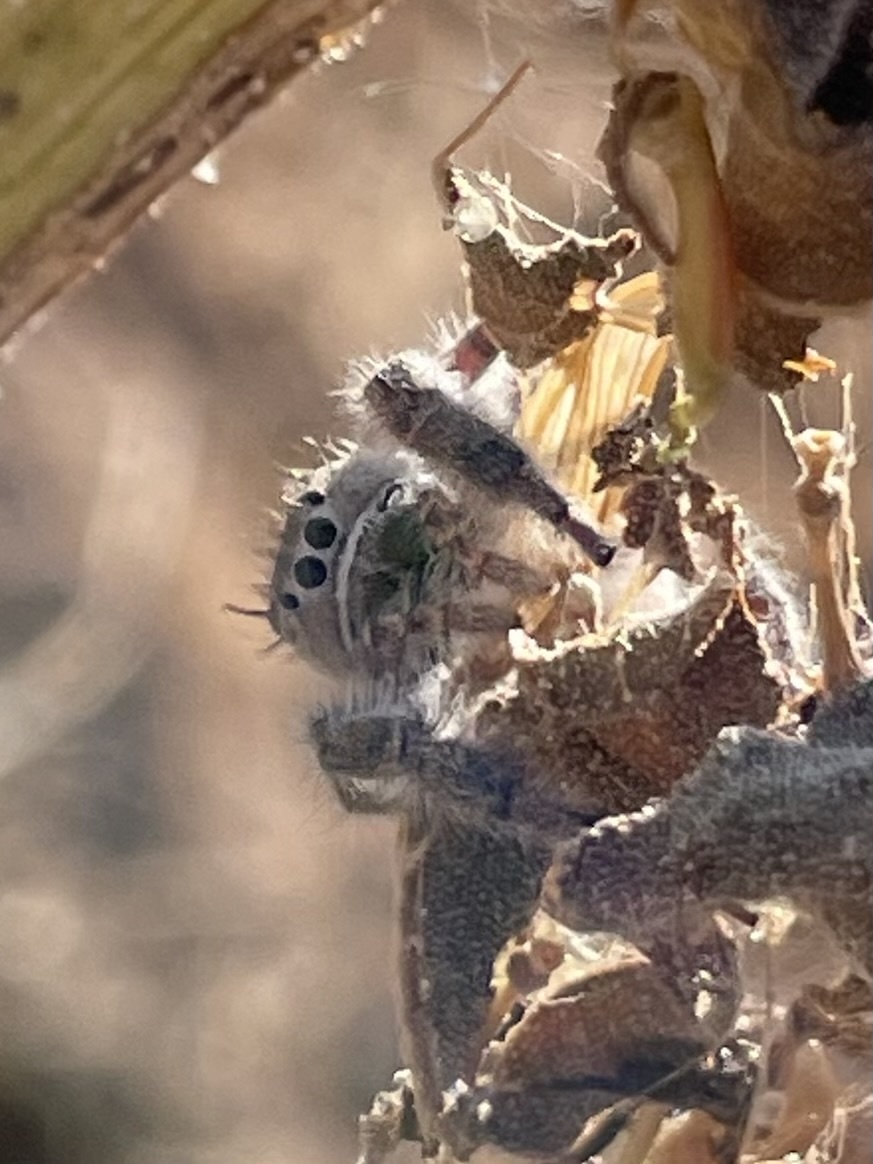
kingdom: Animalia
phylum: Arthropoda
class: Arachnida
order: Araneae
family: Salticidae
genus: Phidippus
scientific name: Phidippus texanus
